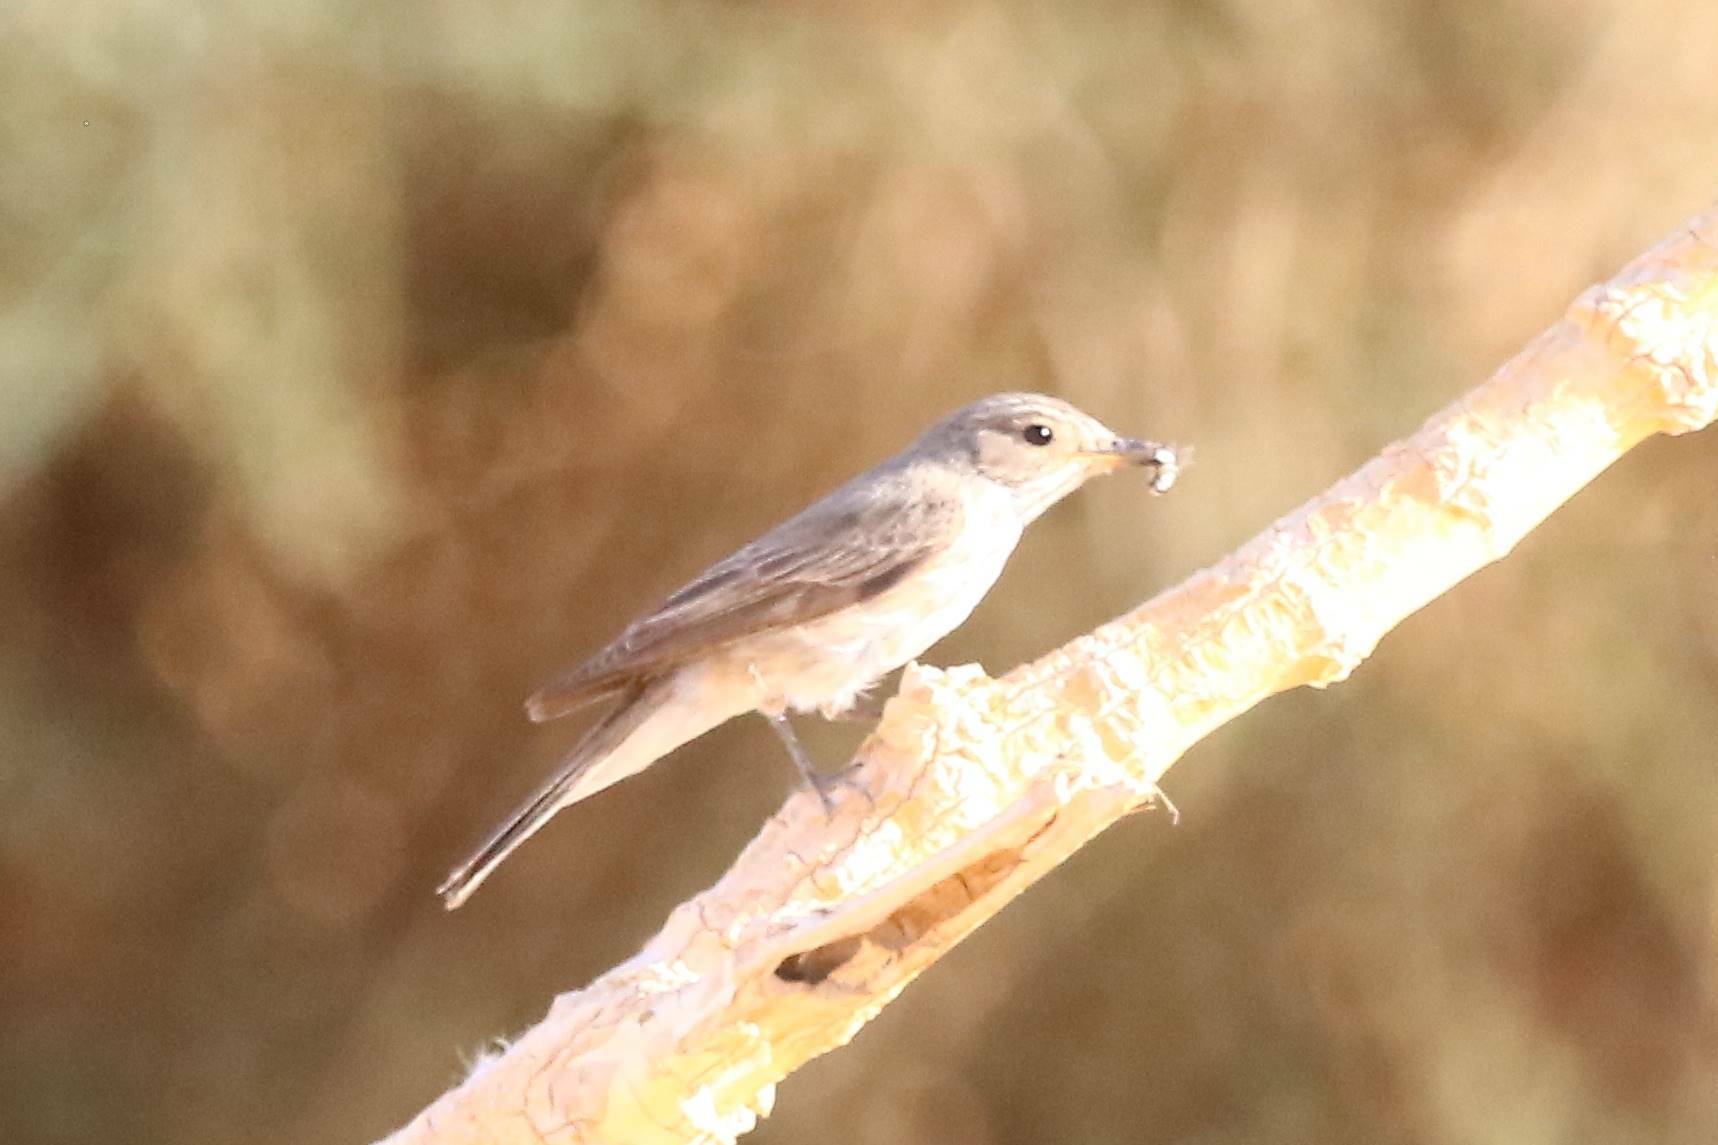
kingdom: Animalia
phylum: Chordata
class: Aves
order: Passeriformes
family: Muscicapidae
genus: Muscicapa
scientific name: Muscicapa striata
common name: Spotted flycatcher
